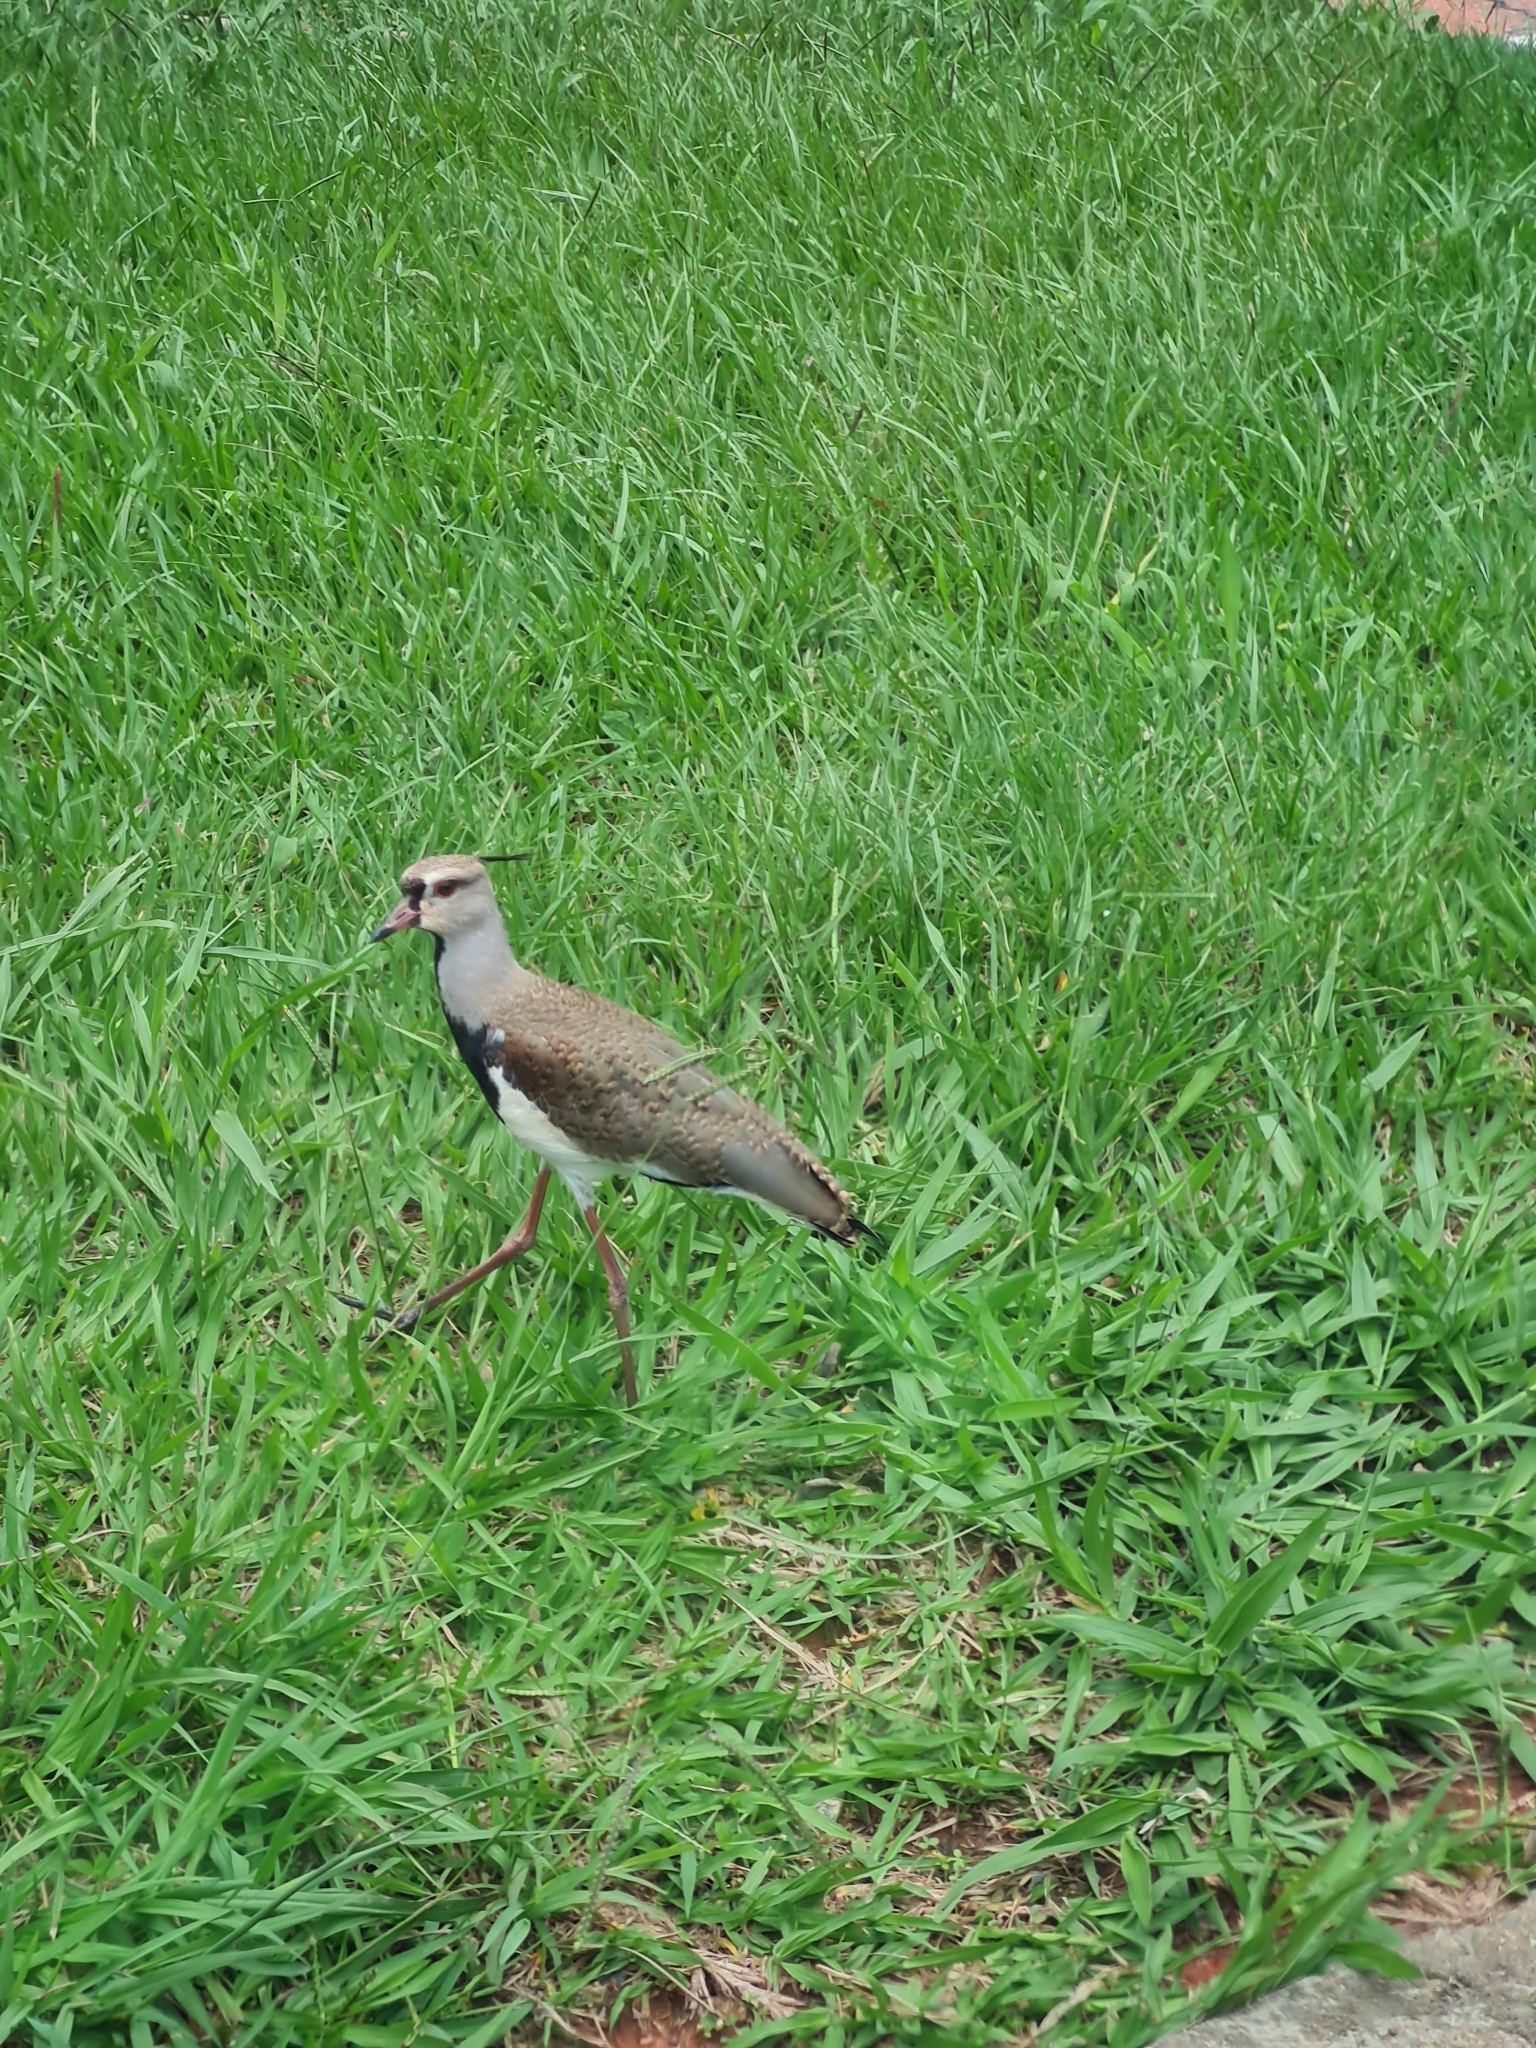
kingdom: Animalia
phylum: Chordata
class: Aves
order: Charadriiformes
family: Charadriidae
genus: Vanellus
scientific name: Vanellus chilensis
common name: Southern lapwing
